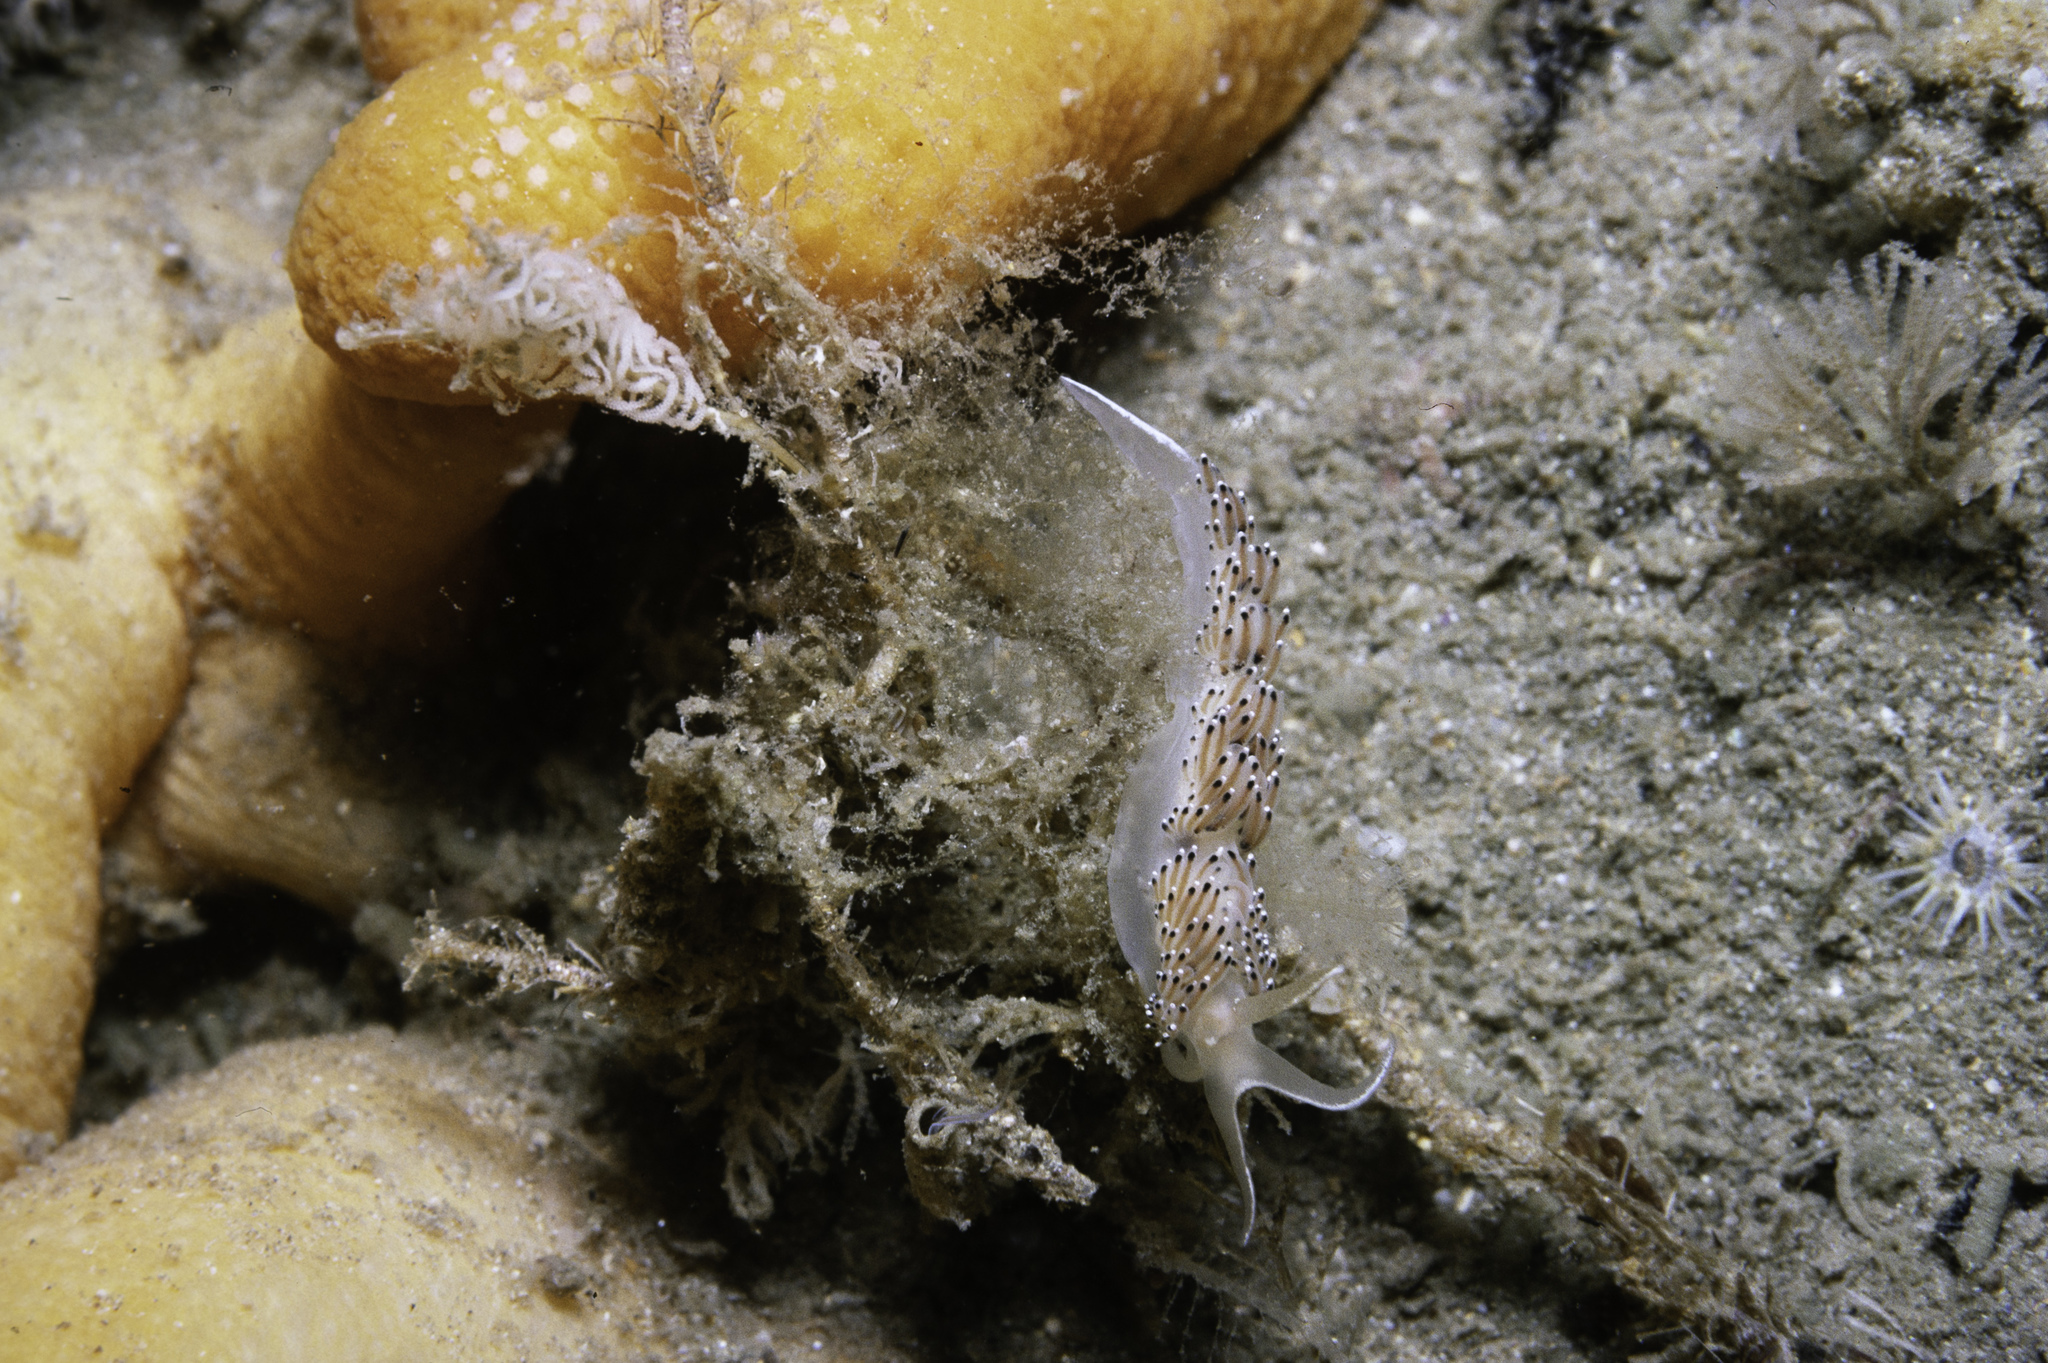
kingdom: Animalia
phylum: Mollusca
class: Gastropoda
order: Nudibranchia
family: Facelinidae
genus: Caloria
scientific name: Caloria elegans
